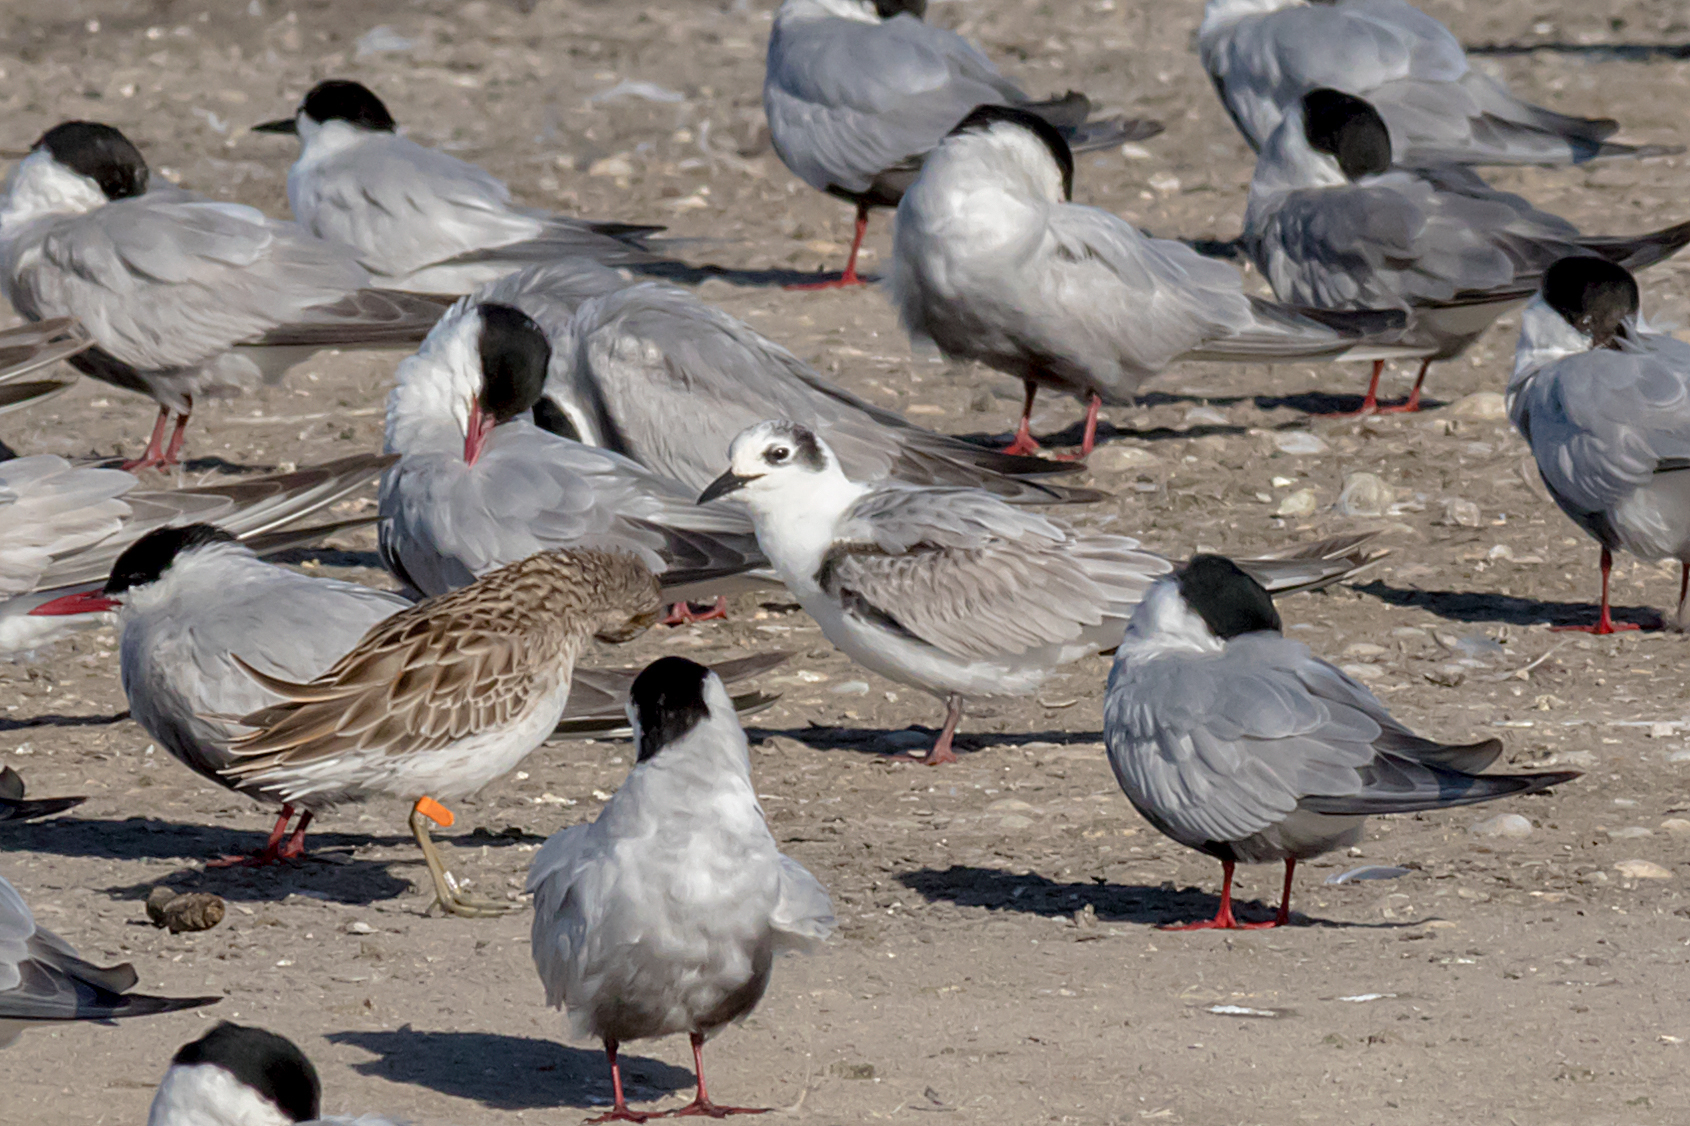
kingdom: Animalia
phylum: Chordata
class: Aves
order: Charadriiformes
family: Laridae
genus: Chlidonias
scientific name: Chlidonias leucopterus
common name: White-winged tern
